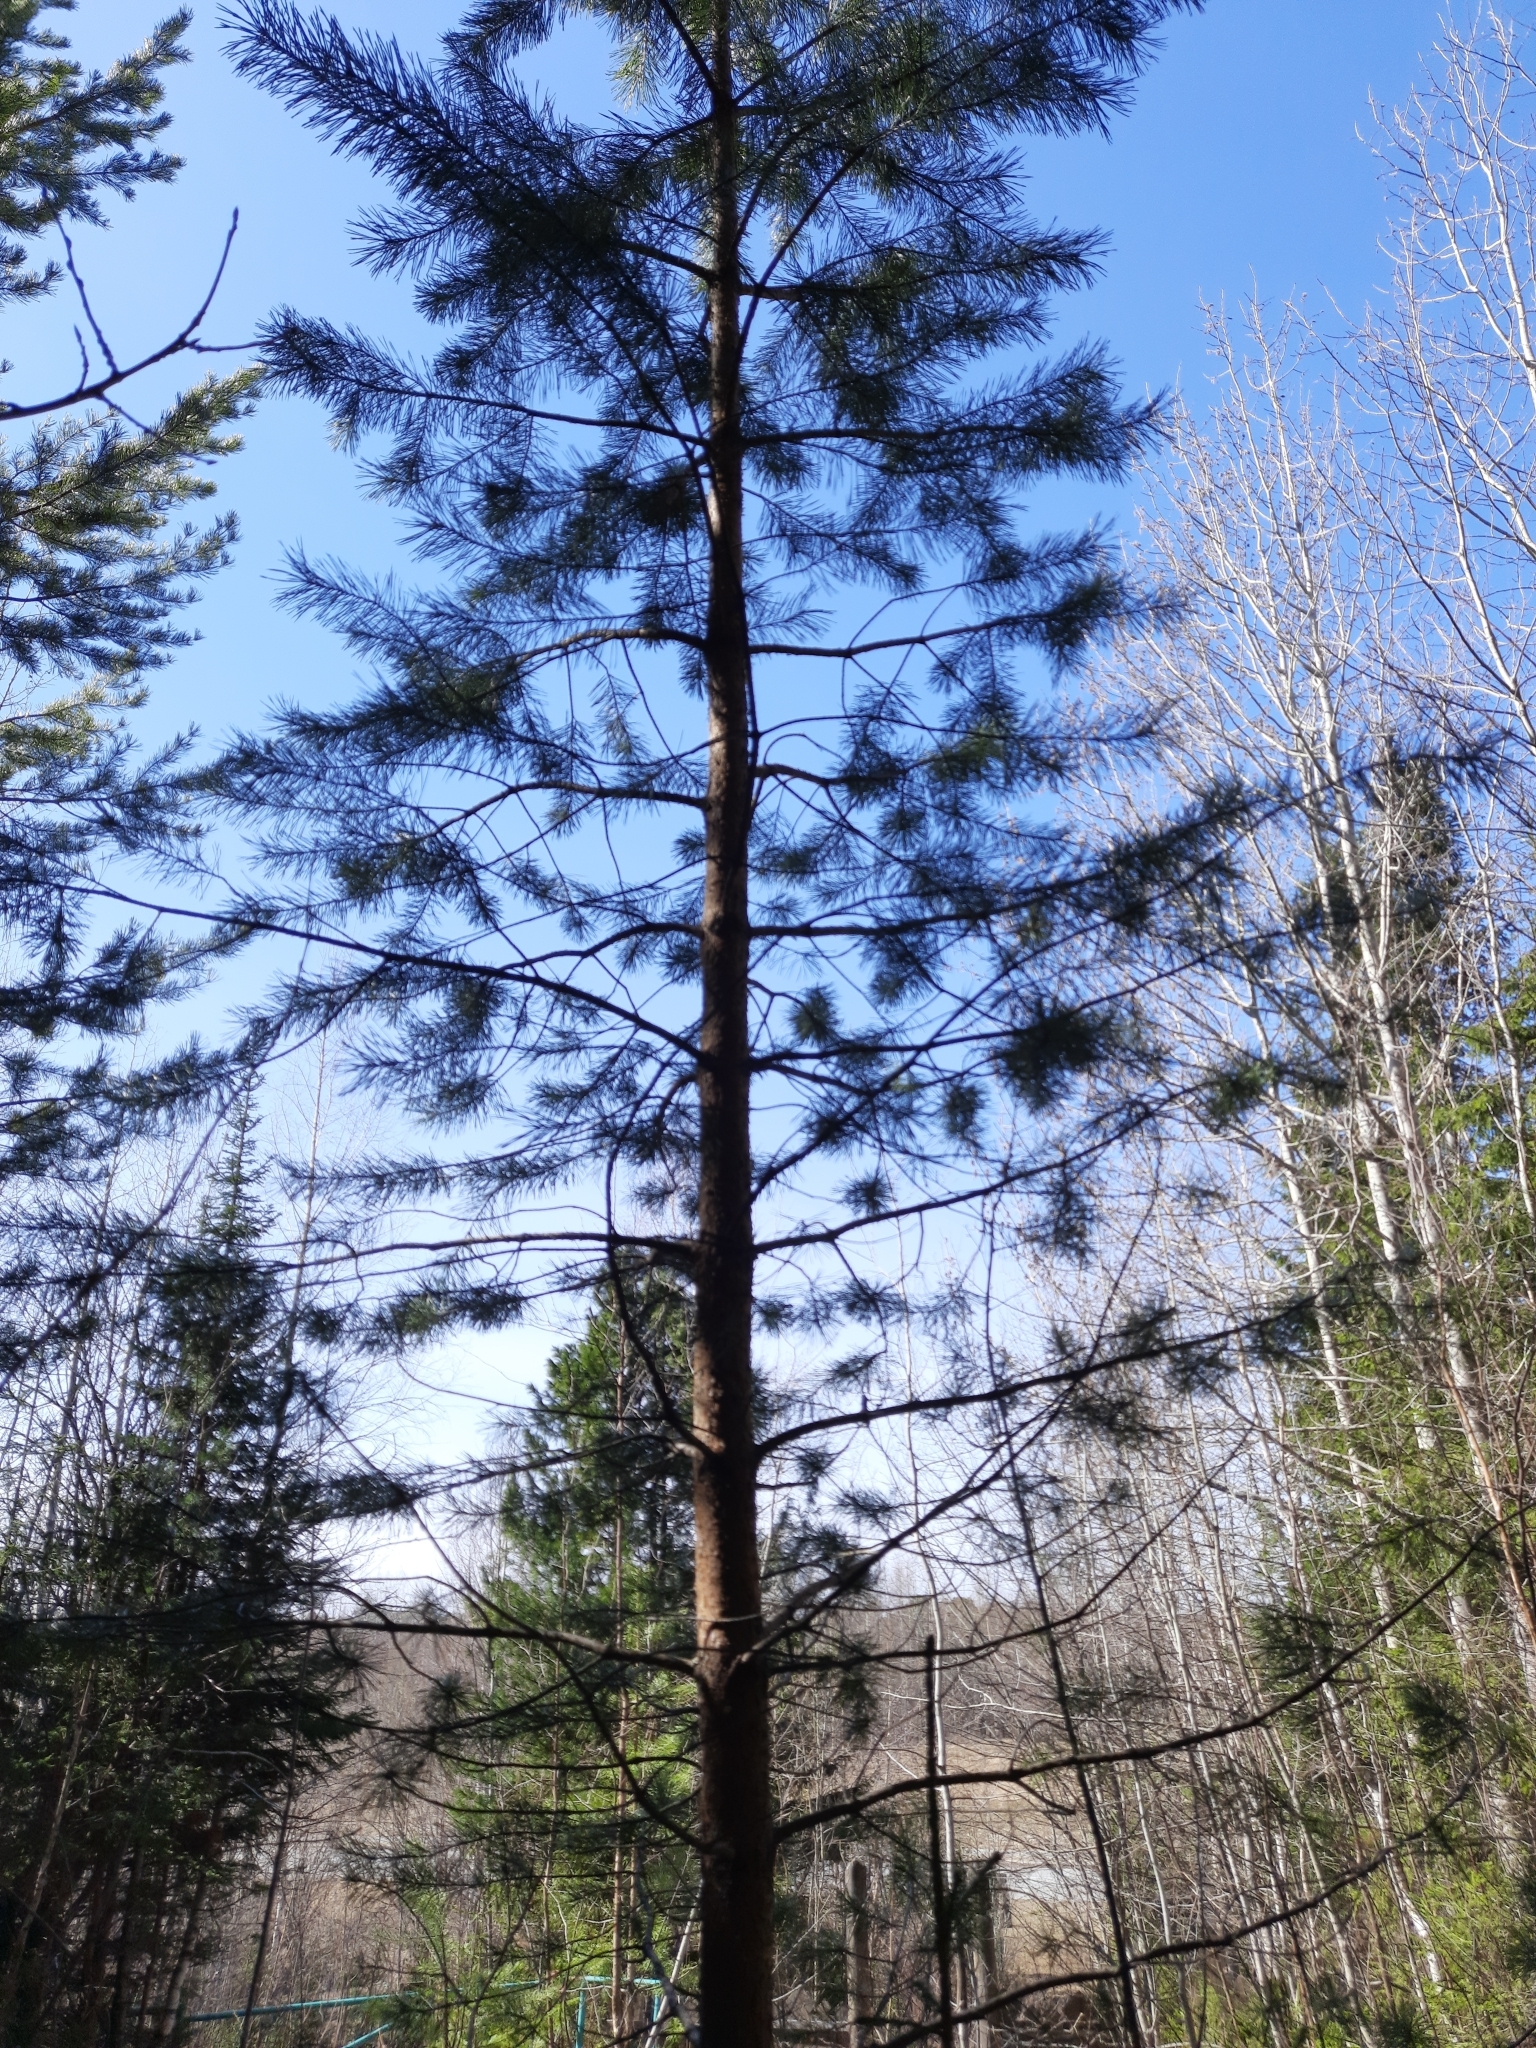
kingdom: Plantae
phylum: Tracheophyta
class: Pinopsida
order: Pinales
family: Pinaceae
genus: Pinus
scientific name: Pinus sibirica
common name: Siberian pine
